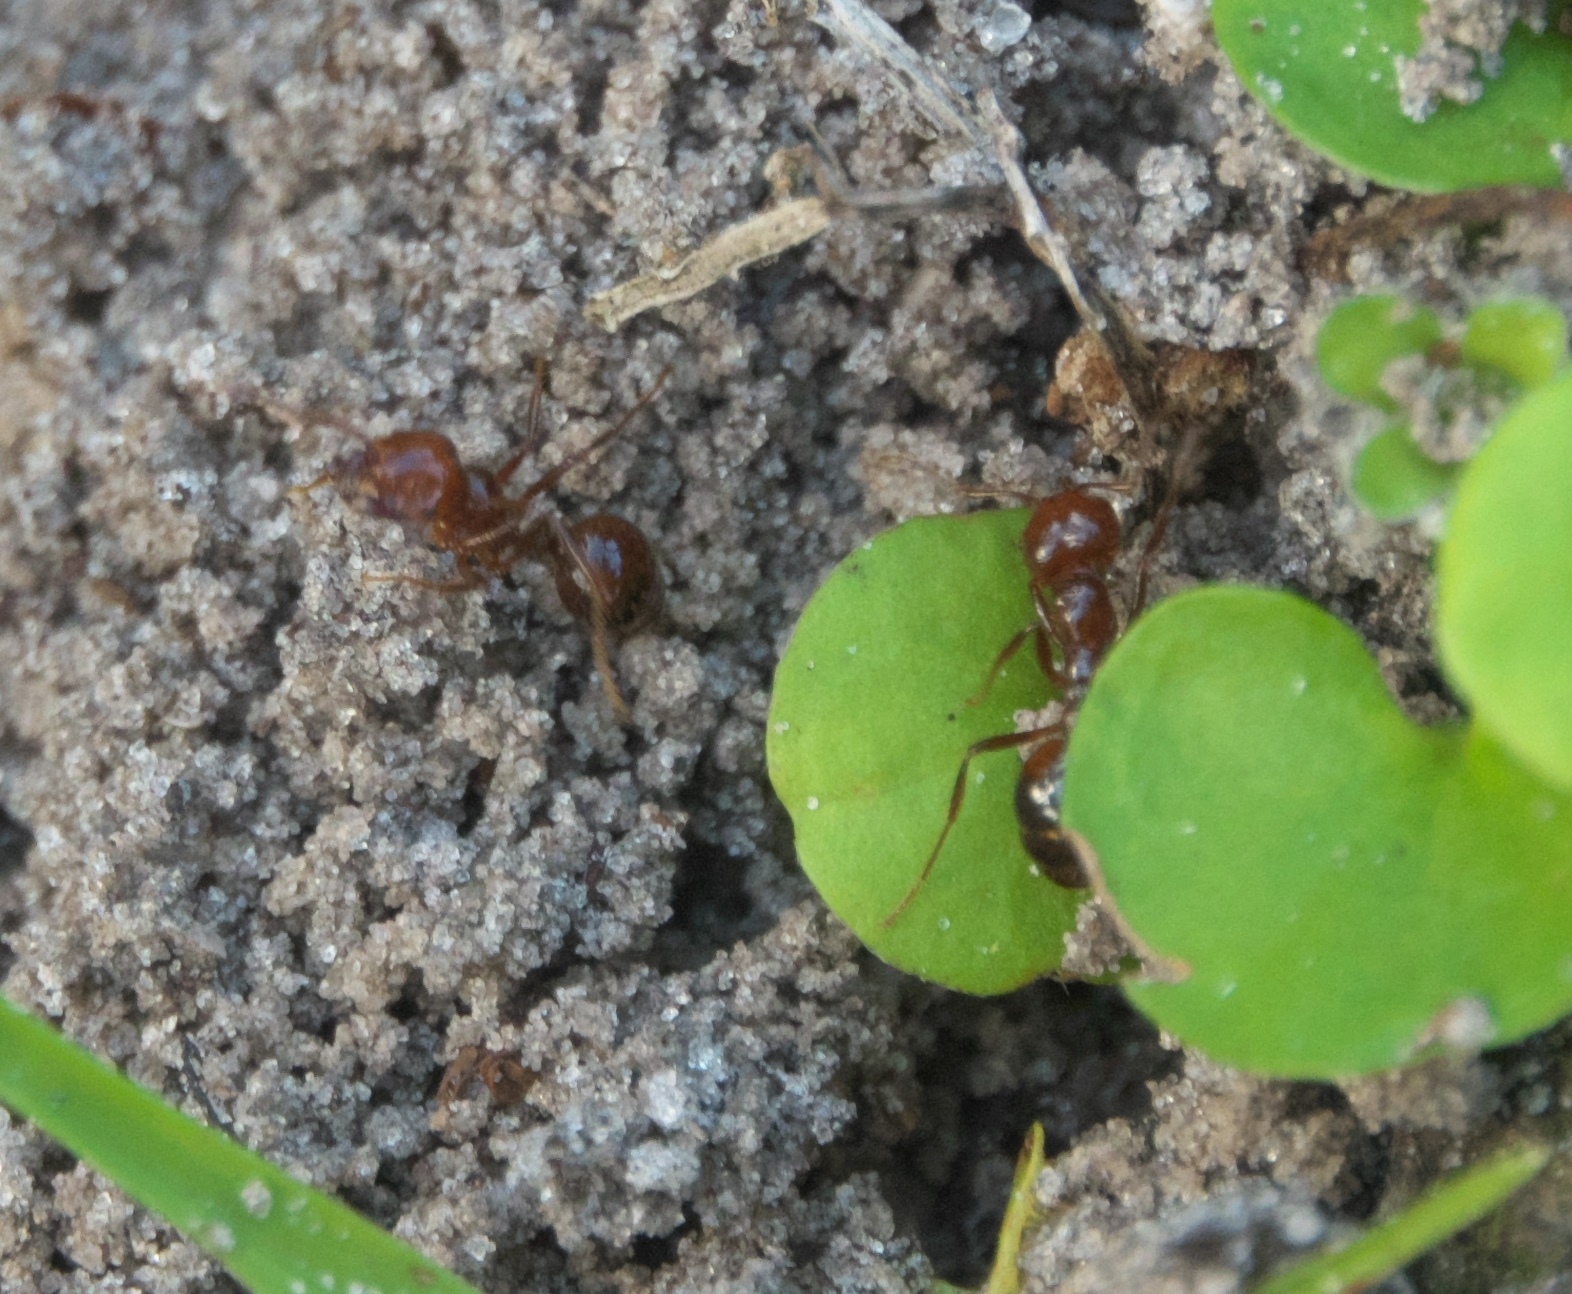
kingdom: Animalia
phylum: Arthropoda
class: Insecta
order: Hymenoptera
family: Formicidae
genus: Solenopsis
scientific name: Solenopsis invicta
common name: Red imported fire ant
